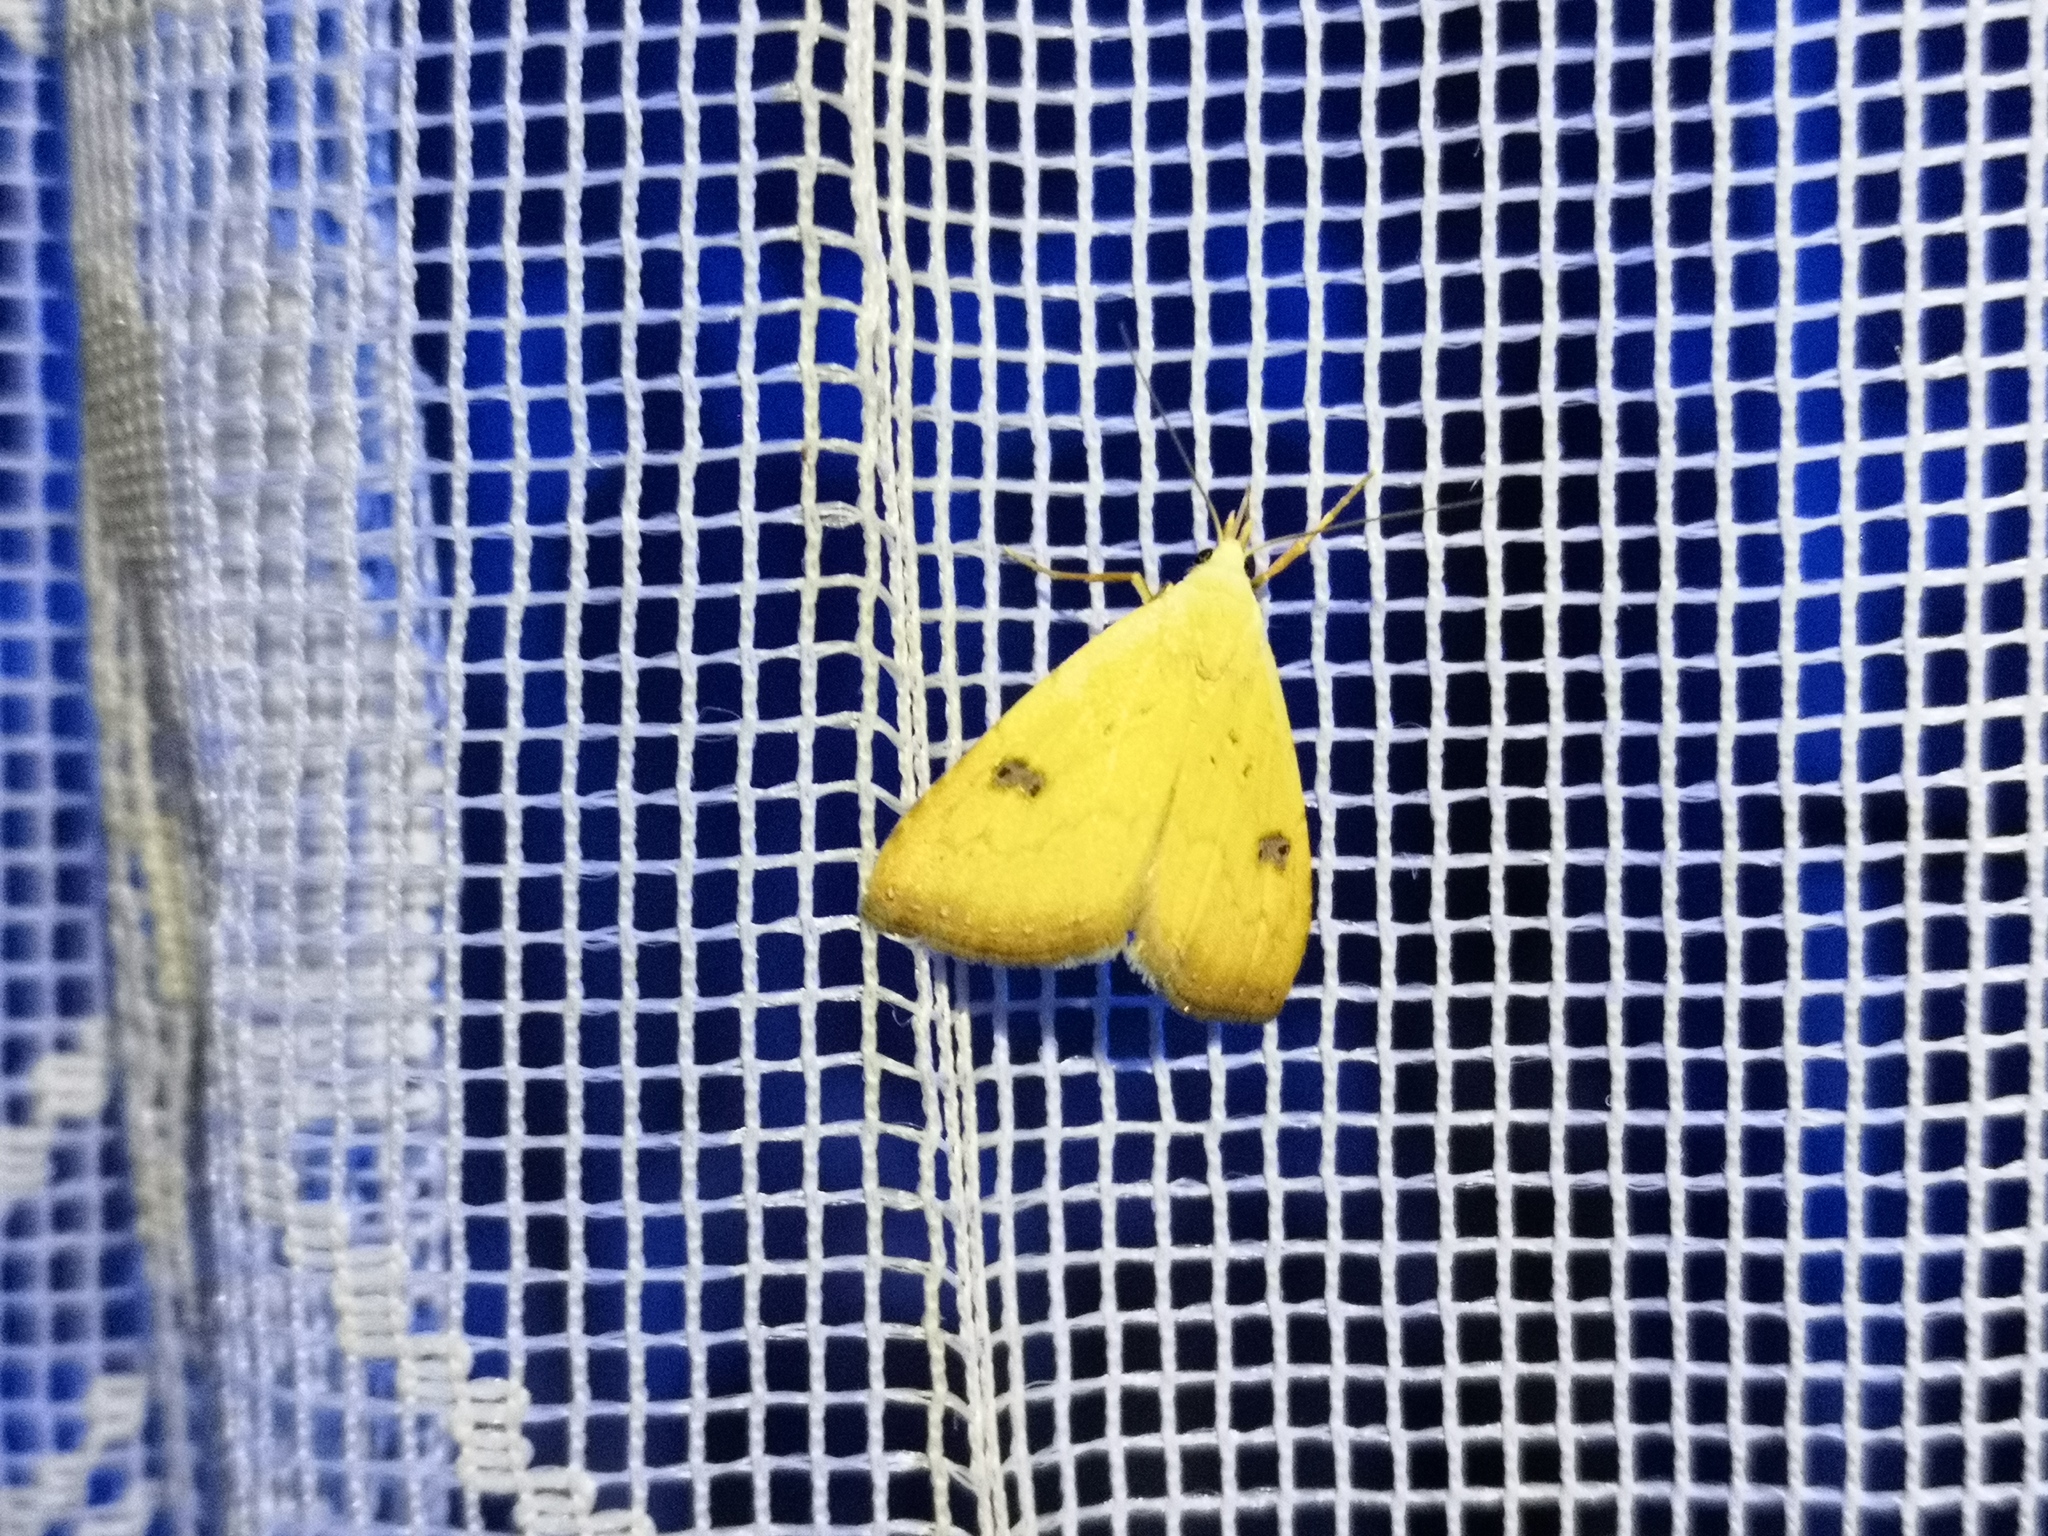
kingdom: Animalia
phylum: Arthropoda
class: Insecta
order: Lepidoptera
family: Erebidae
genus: Rivula
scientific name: Rivula sericealis
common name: Straw dot
